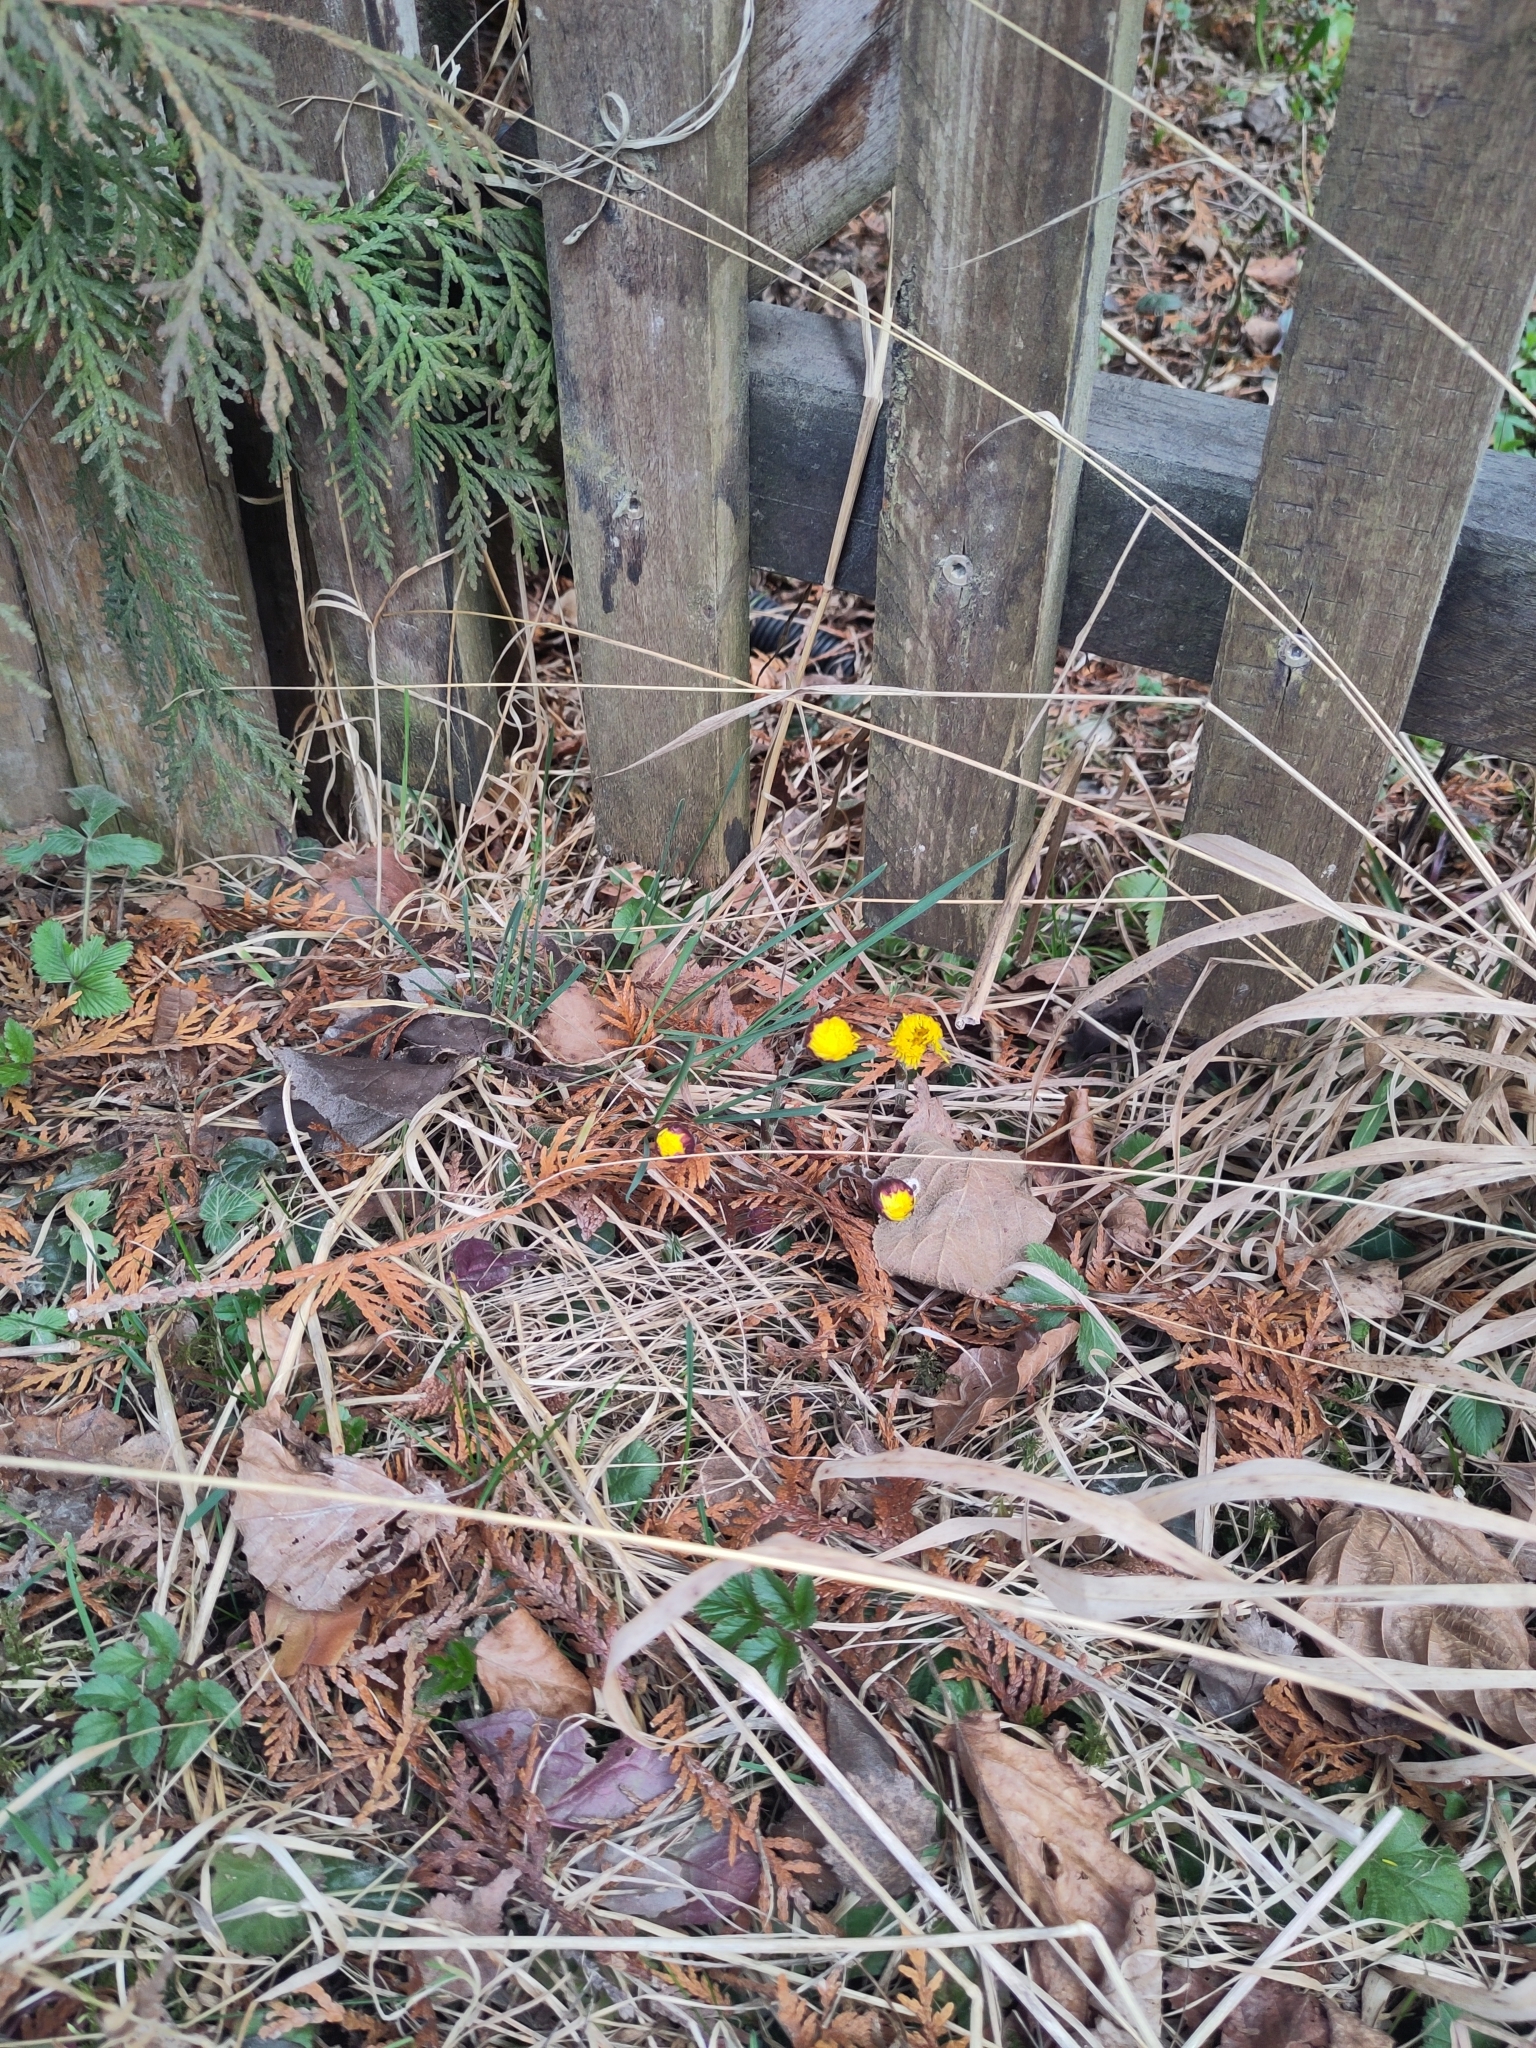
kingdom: Plantae
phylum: Tracheophyta
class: Magnoliopsida
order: Asterales
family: Asteraceae
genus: Tussilago
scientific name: Tussilago farfara
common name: Coltsfoot
